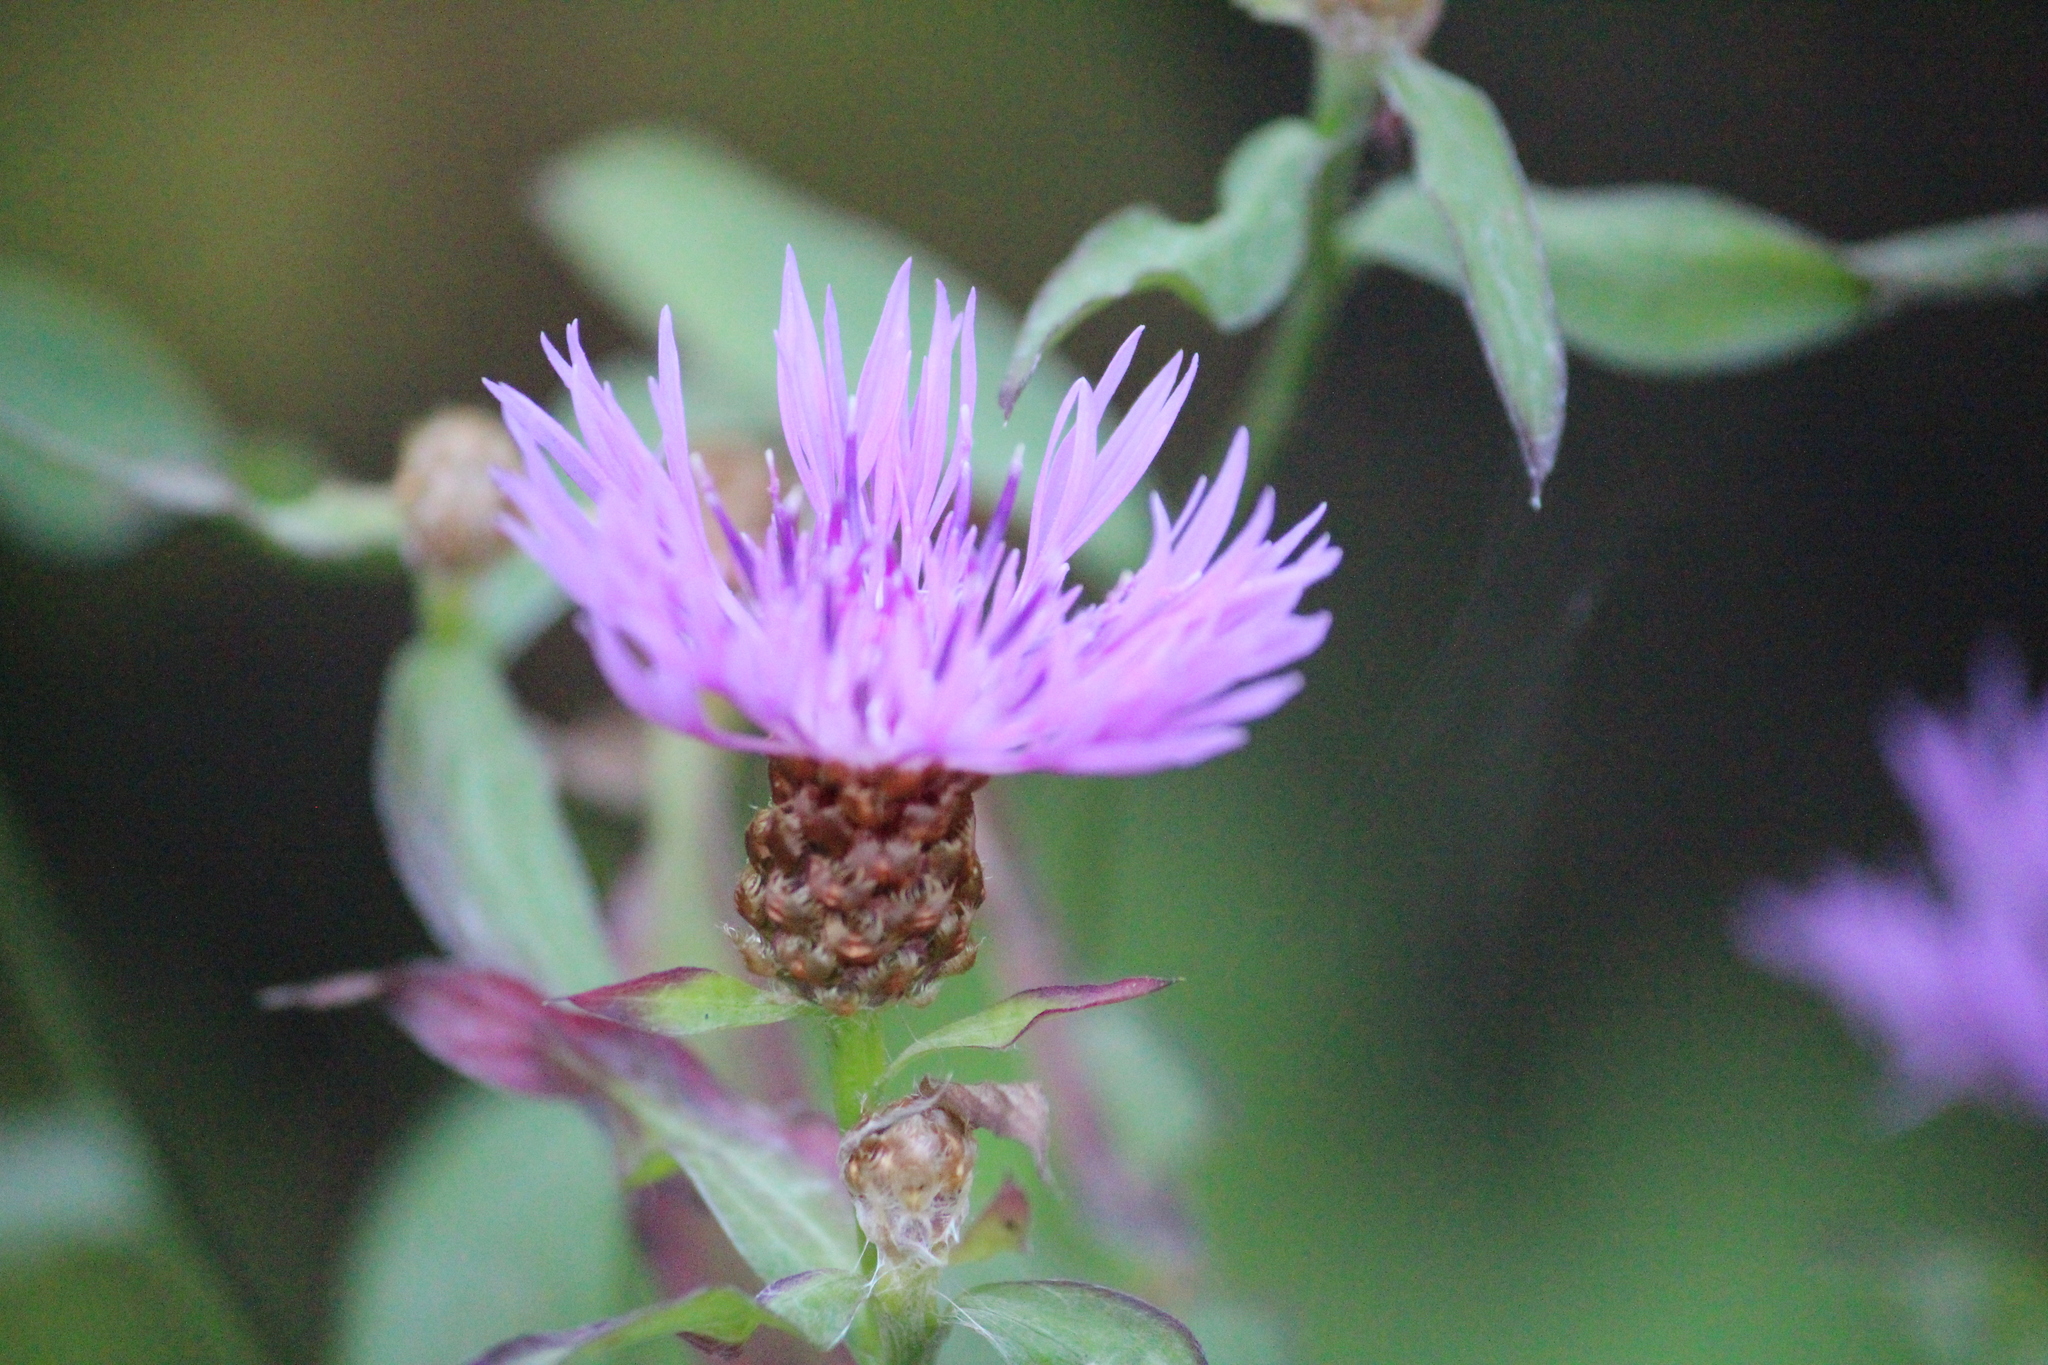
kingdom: Plantae
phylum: Tracheophyta
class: Magnoliopsida
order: Asterales
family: Asteraceae
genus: Centaurea
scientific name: Centaurea jacea
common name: Brown knapweed
